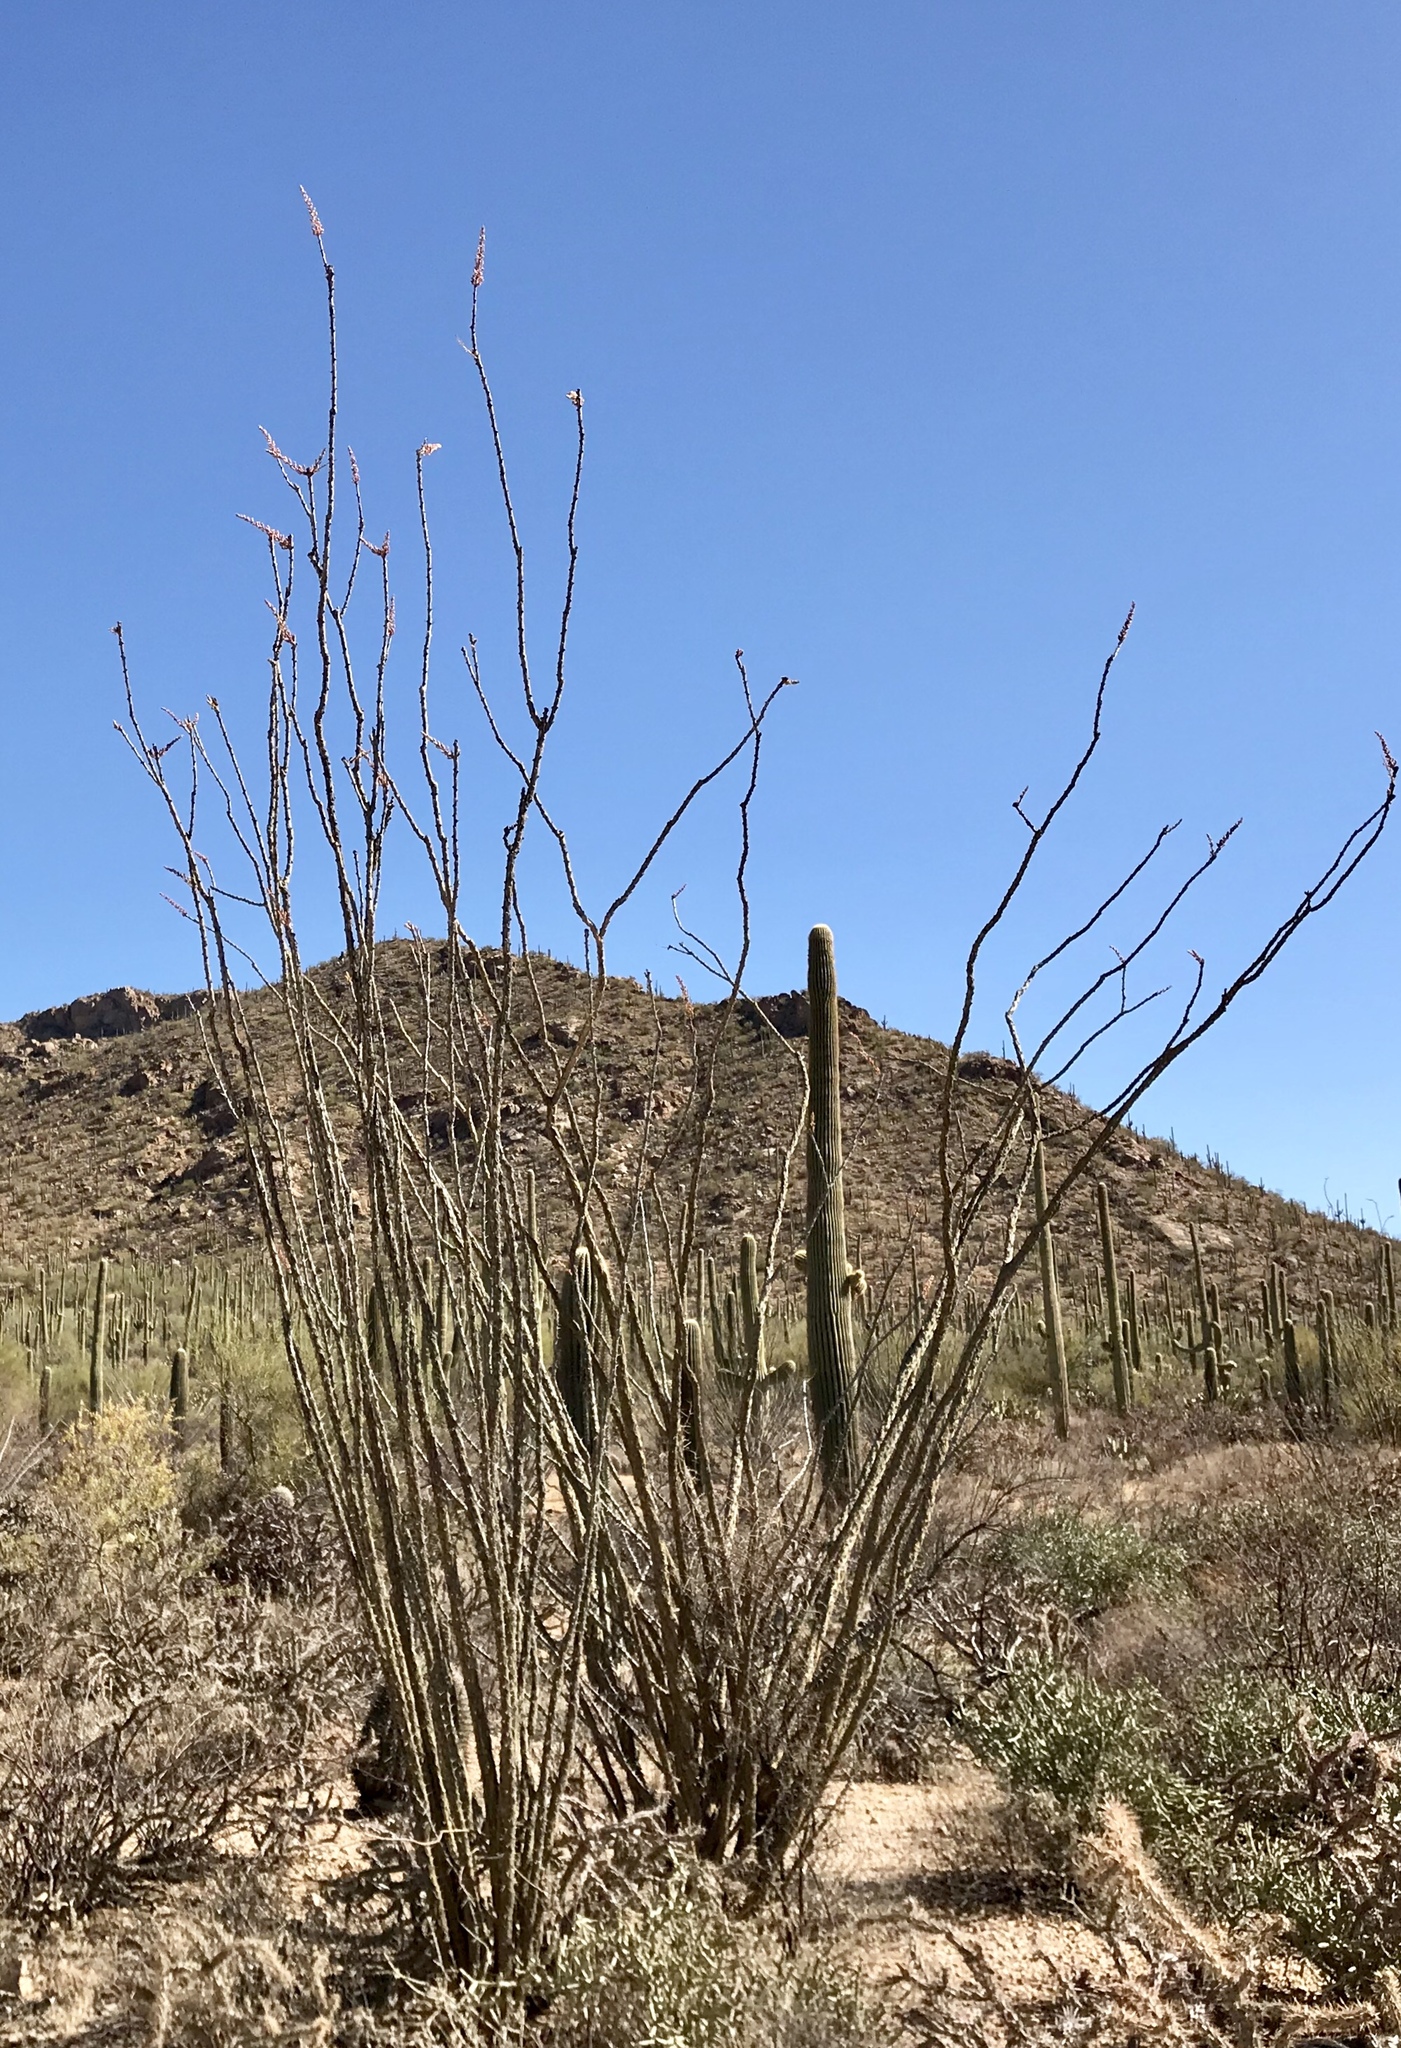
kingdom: Plantae
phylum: Tracheophyta
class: Magnoliopsida
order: Ericales
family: Fouquieriaceae
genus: Fouquieria
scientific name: Fouquieria splendens
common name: Vine-cactus
